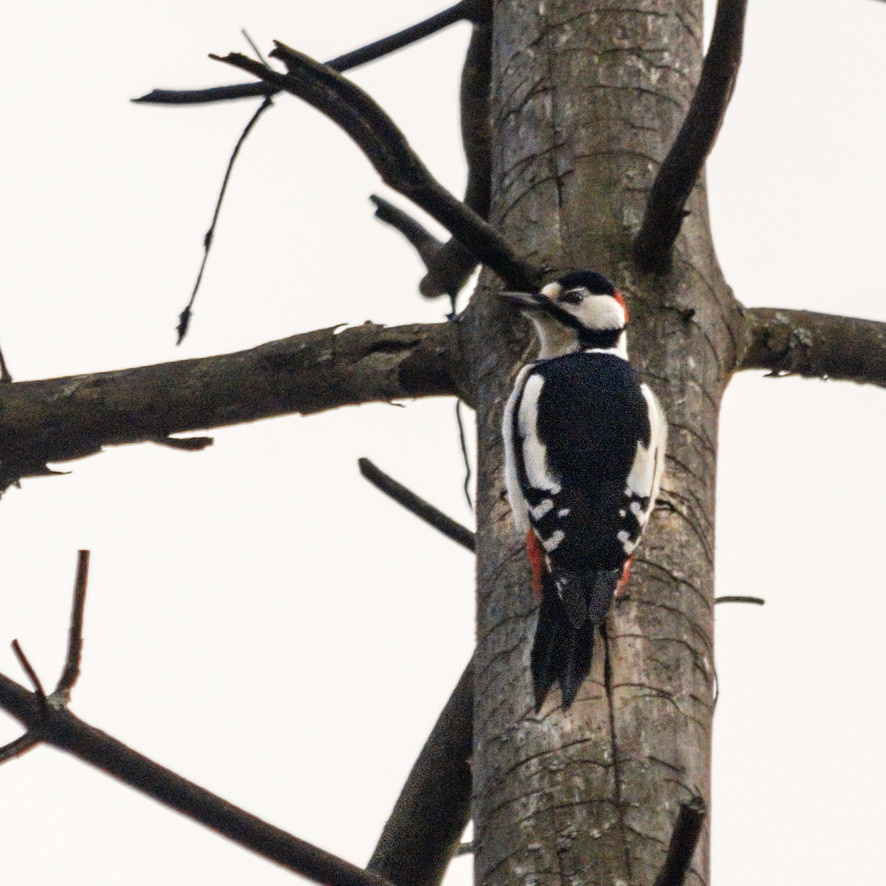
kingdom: Animalia
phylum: Chordata
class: Aves
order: Piciformes
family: Picidae
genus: Dendrocopos
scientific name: Dendrocopos major
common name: Great spotted woodpecker
